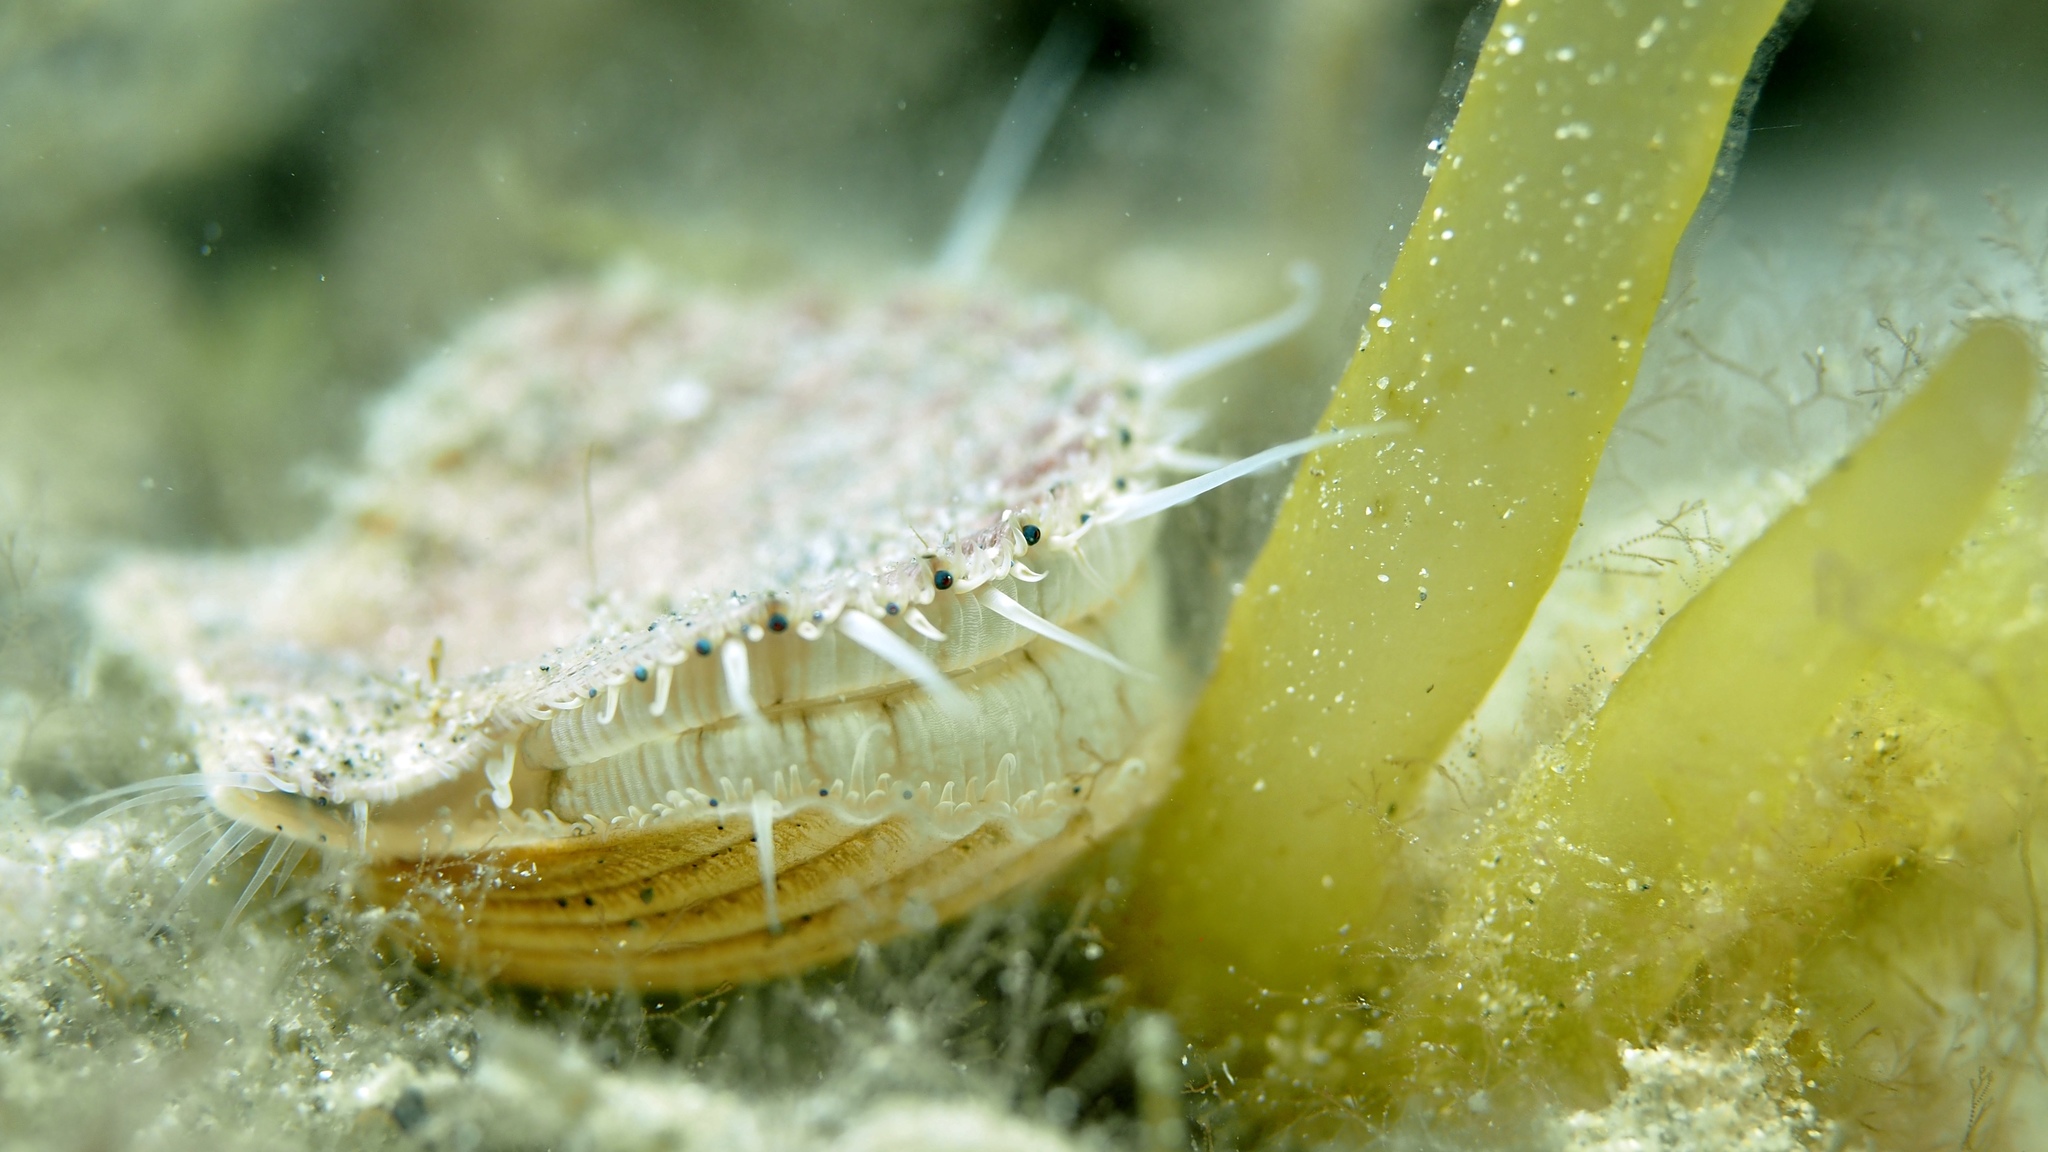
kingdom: Animalia
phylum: Mollusca
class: Bivalvia
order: Pectinida
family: Pectinidae
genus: Pecten
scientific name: Pecten fumatus
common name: Australian scallop
